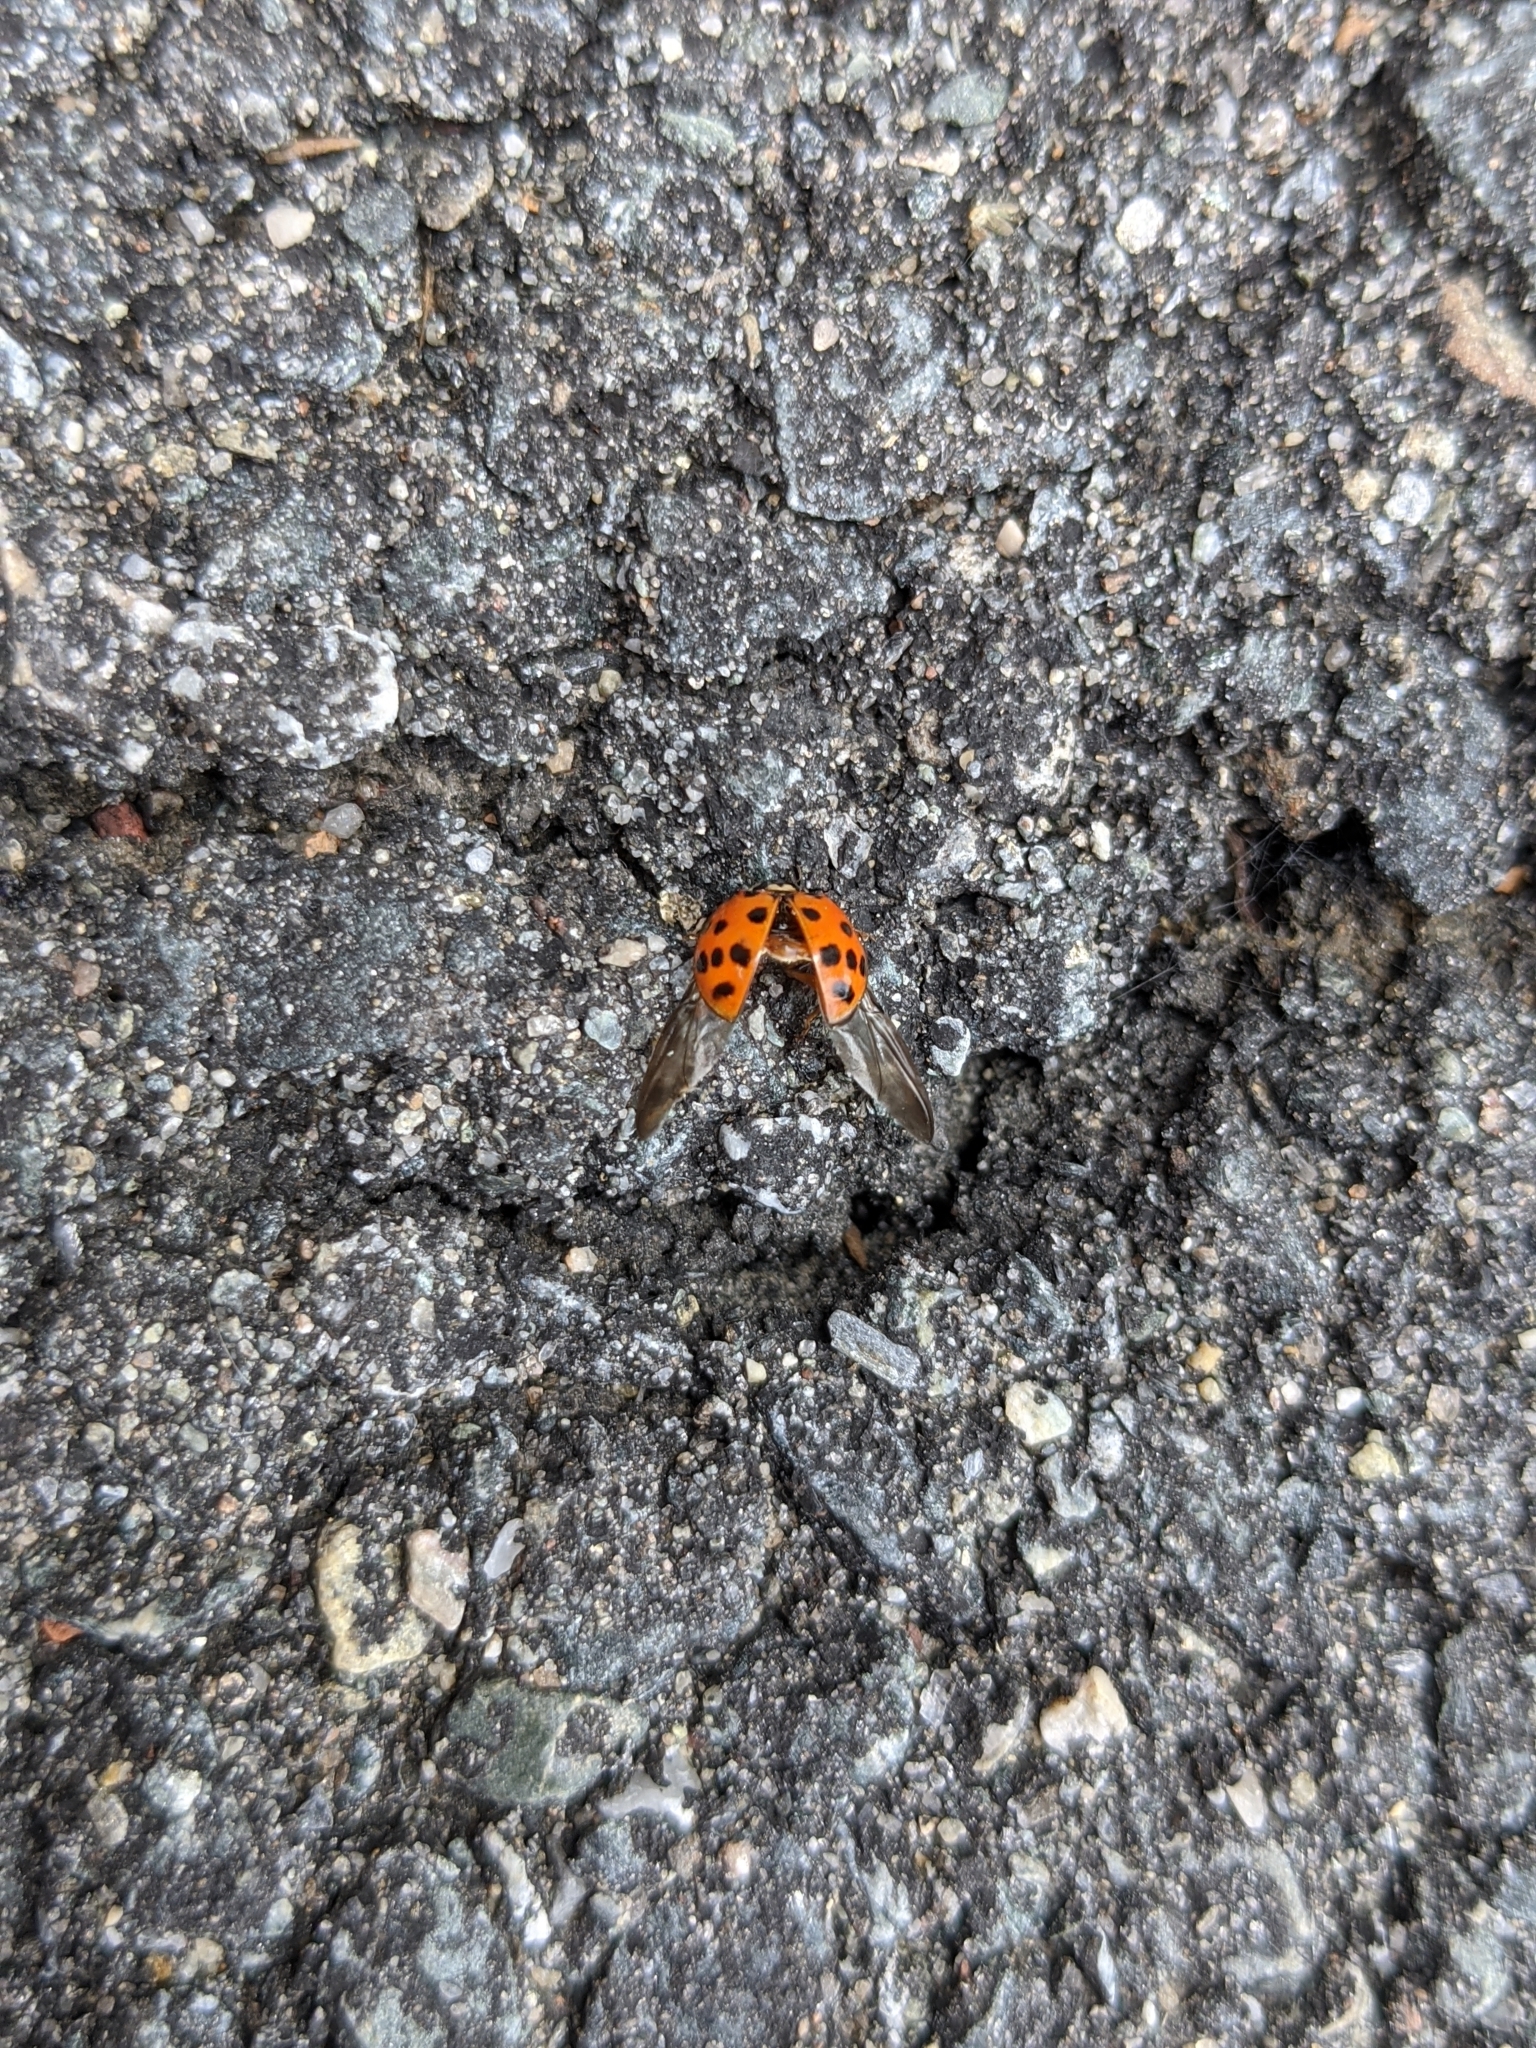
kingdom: Animalia
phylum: Arthropoda
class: Insecta
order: Coleoptera
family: Coccinellidae
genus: Harmonia
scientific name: Harmonia axyridis
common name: Harlequin ladybird
